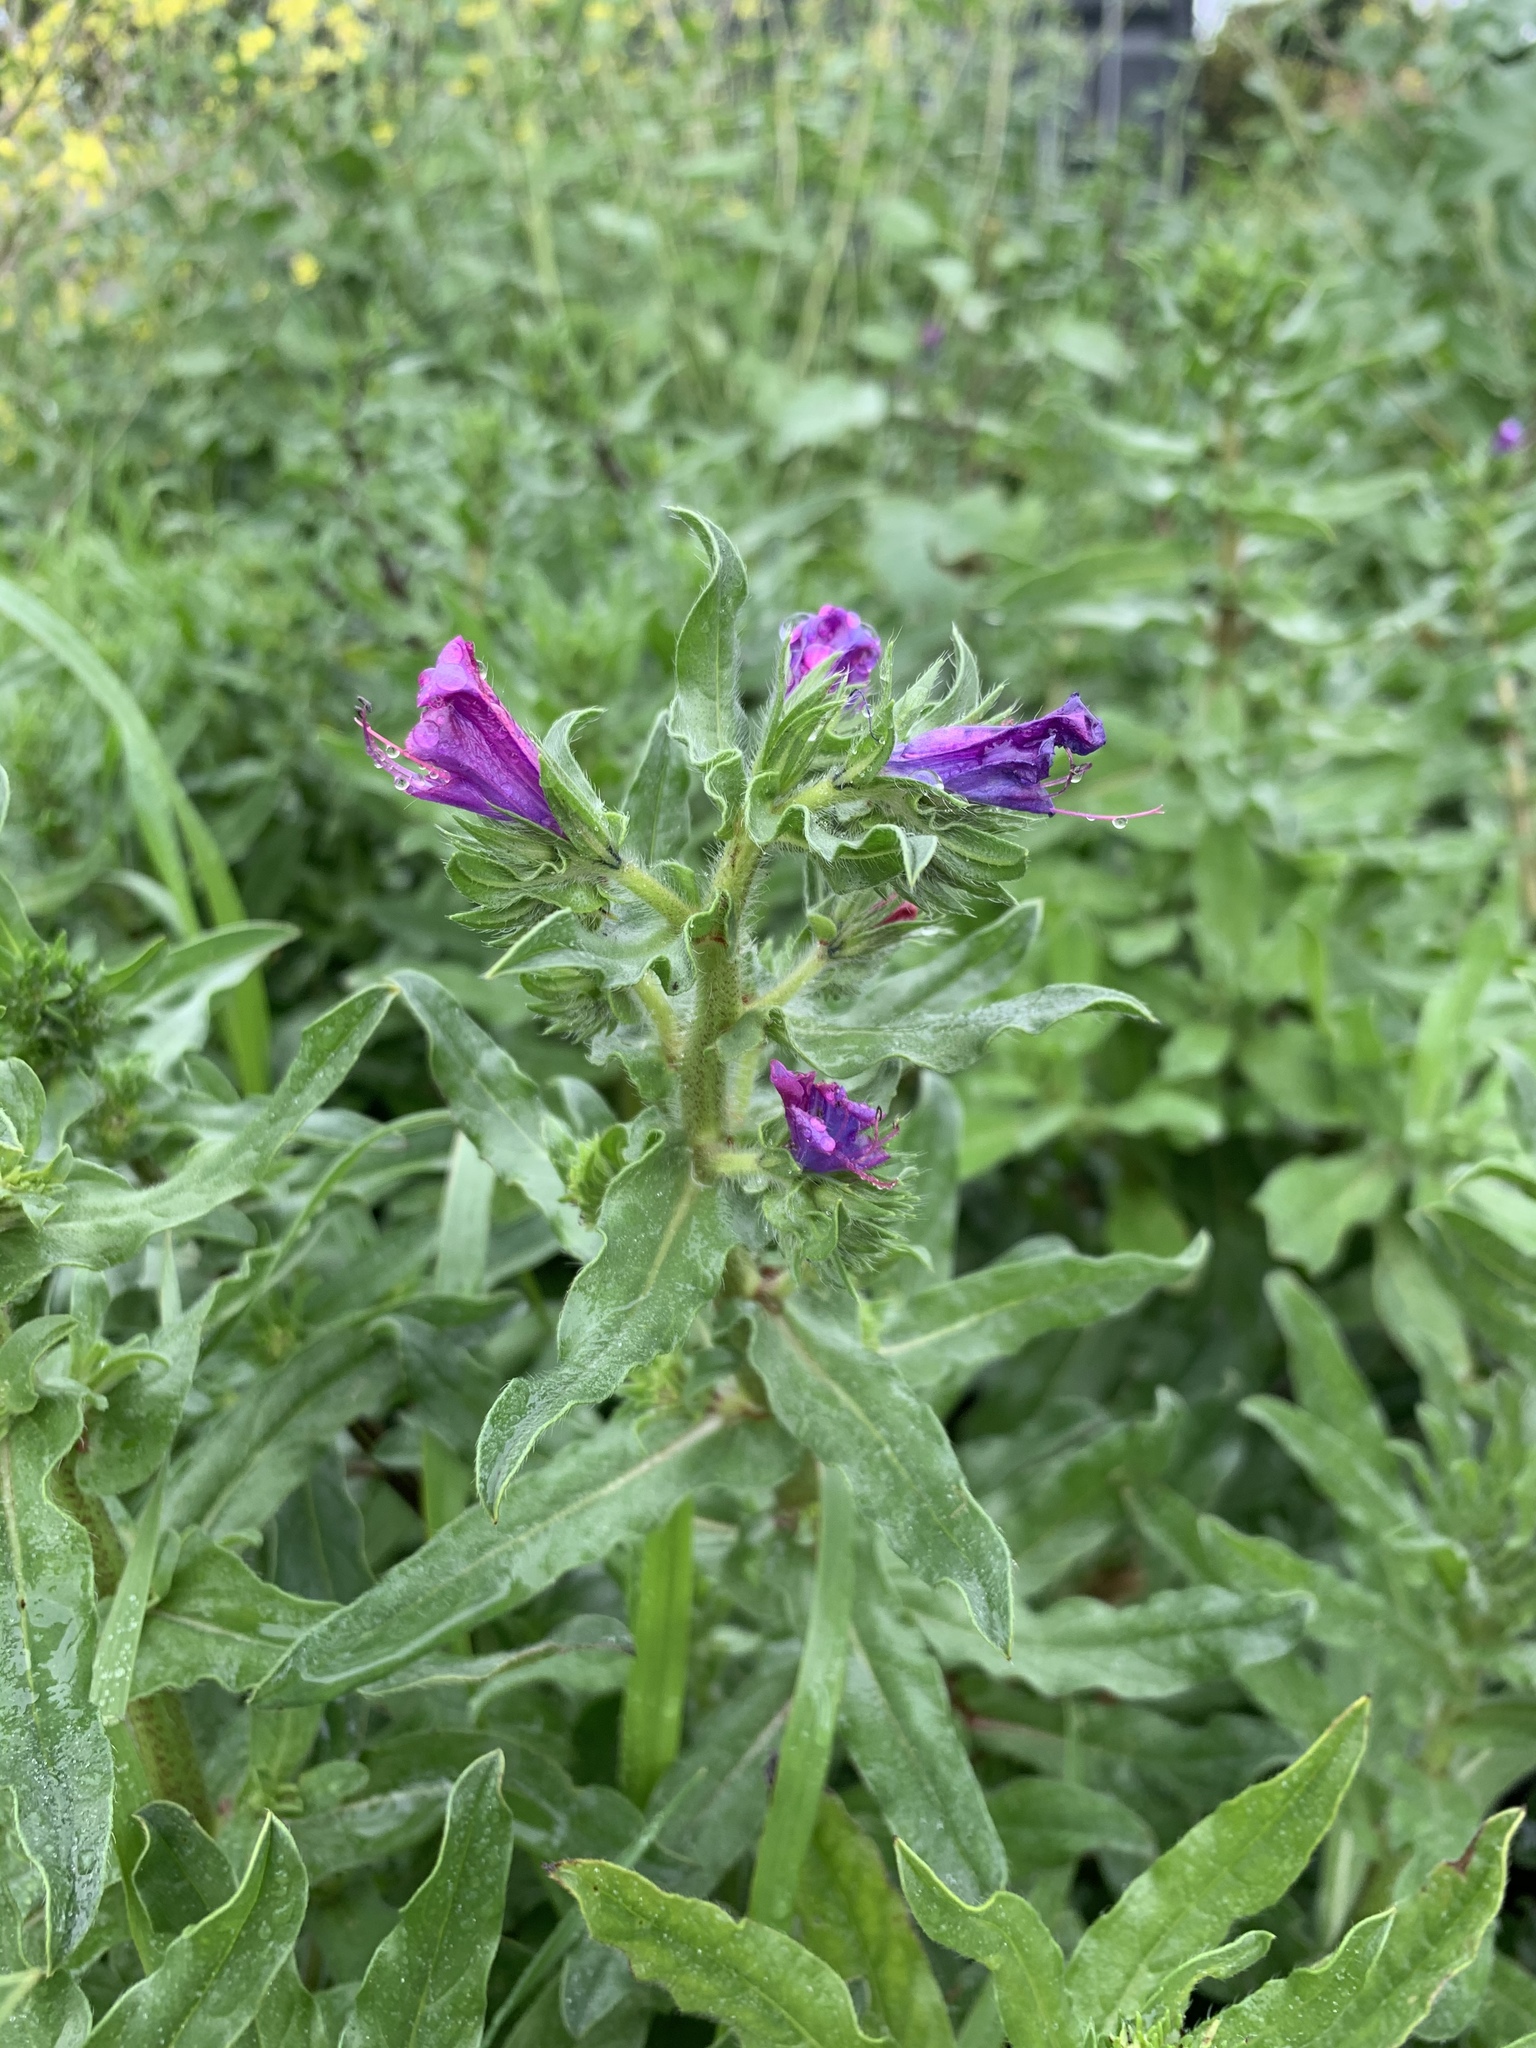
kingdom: Plantae
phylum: Tracheophyta
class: Magnoliopsida
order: Boraginales
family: Boraginaceae
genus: Echium
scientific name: Echium plantagineum
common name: Purple viper's-bugloss
